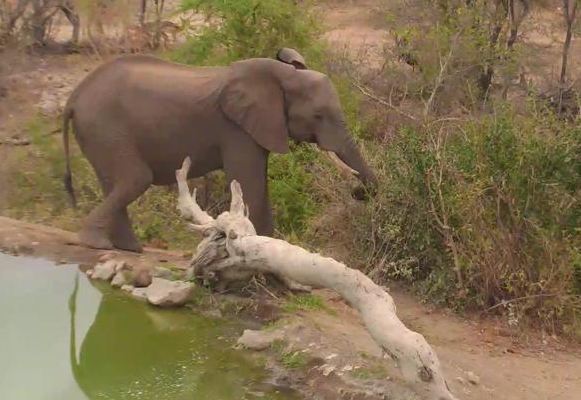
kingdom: Animalia
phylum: Chordata
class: Mammalia
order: Proboscidea
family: Elephantidae
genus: Loxodonta
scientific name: Loxodonta africana
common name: African elephant
